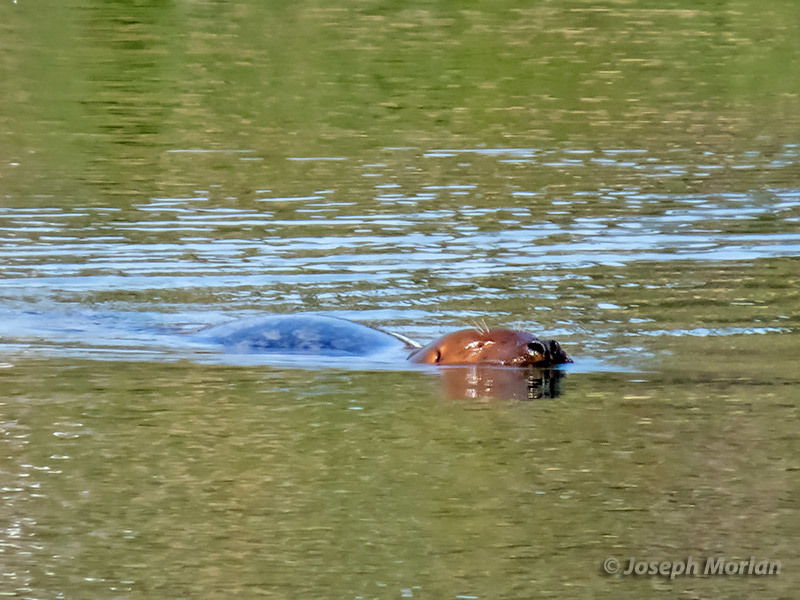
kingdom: Animalia
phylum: Chordata
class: Mammalia
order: Carnivora
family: Phocidae
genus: Phoca
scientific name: Phoca vitulina
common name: Harbor seal
